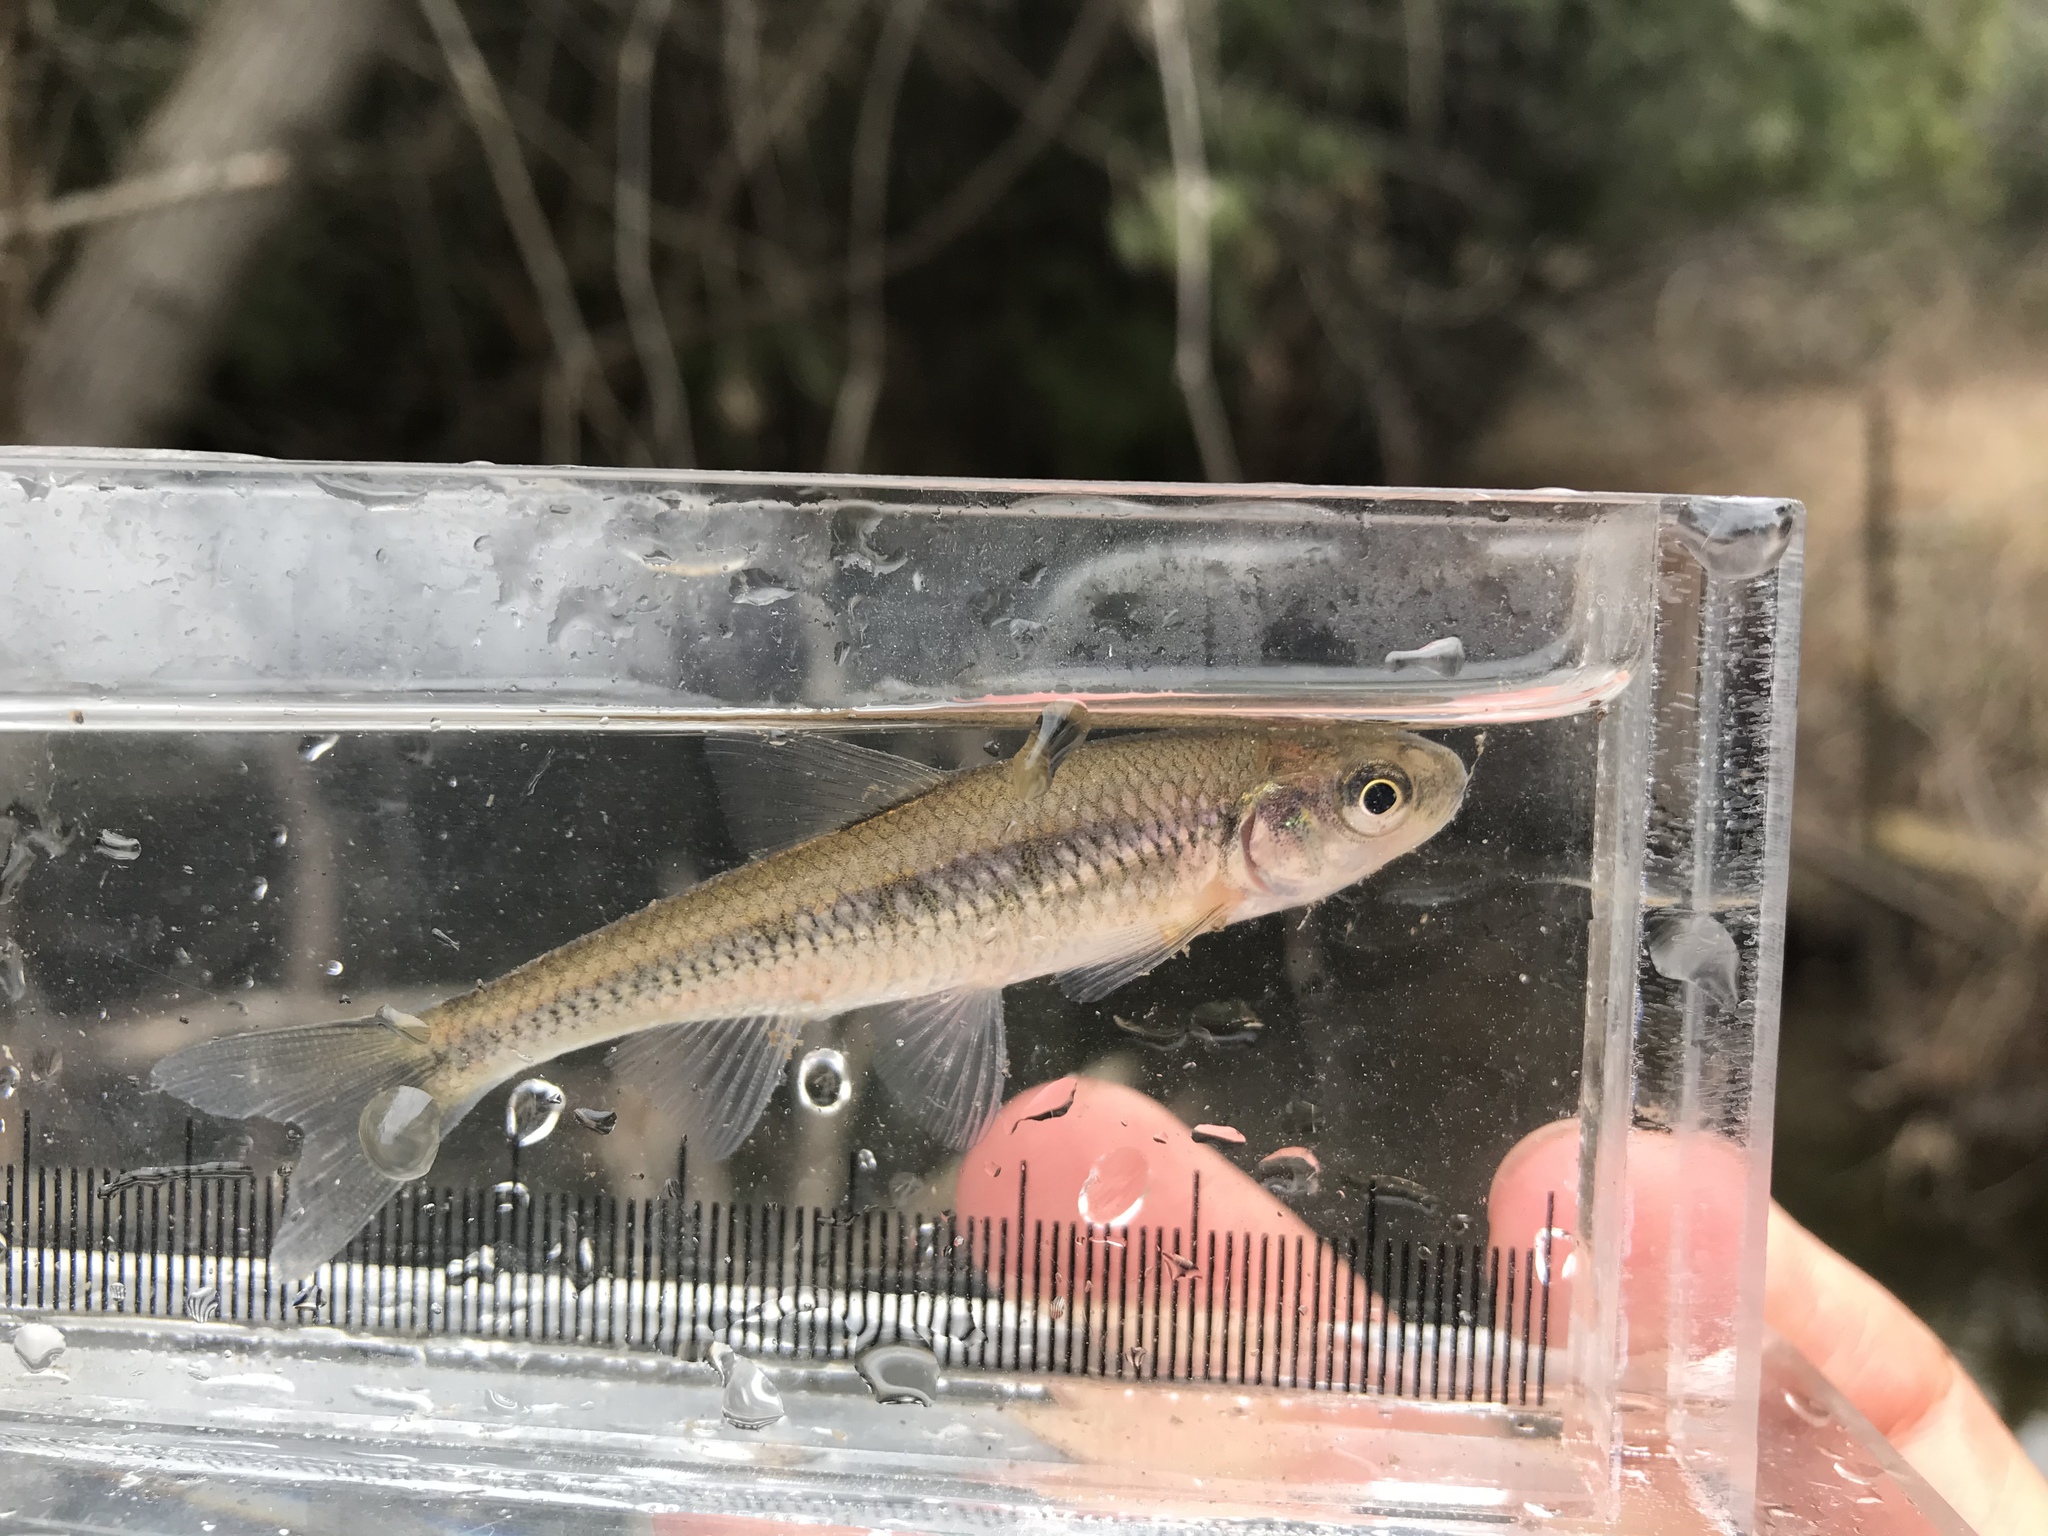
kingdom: Animalia
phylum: Chordata
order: Cypriniformes
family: Cyprinidae
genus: Luxilus
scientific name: Luxilus cornutus
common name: Common shiner
